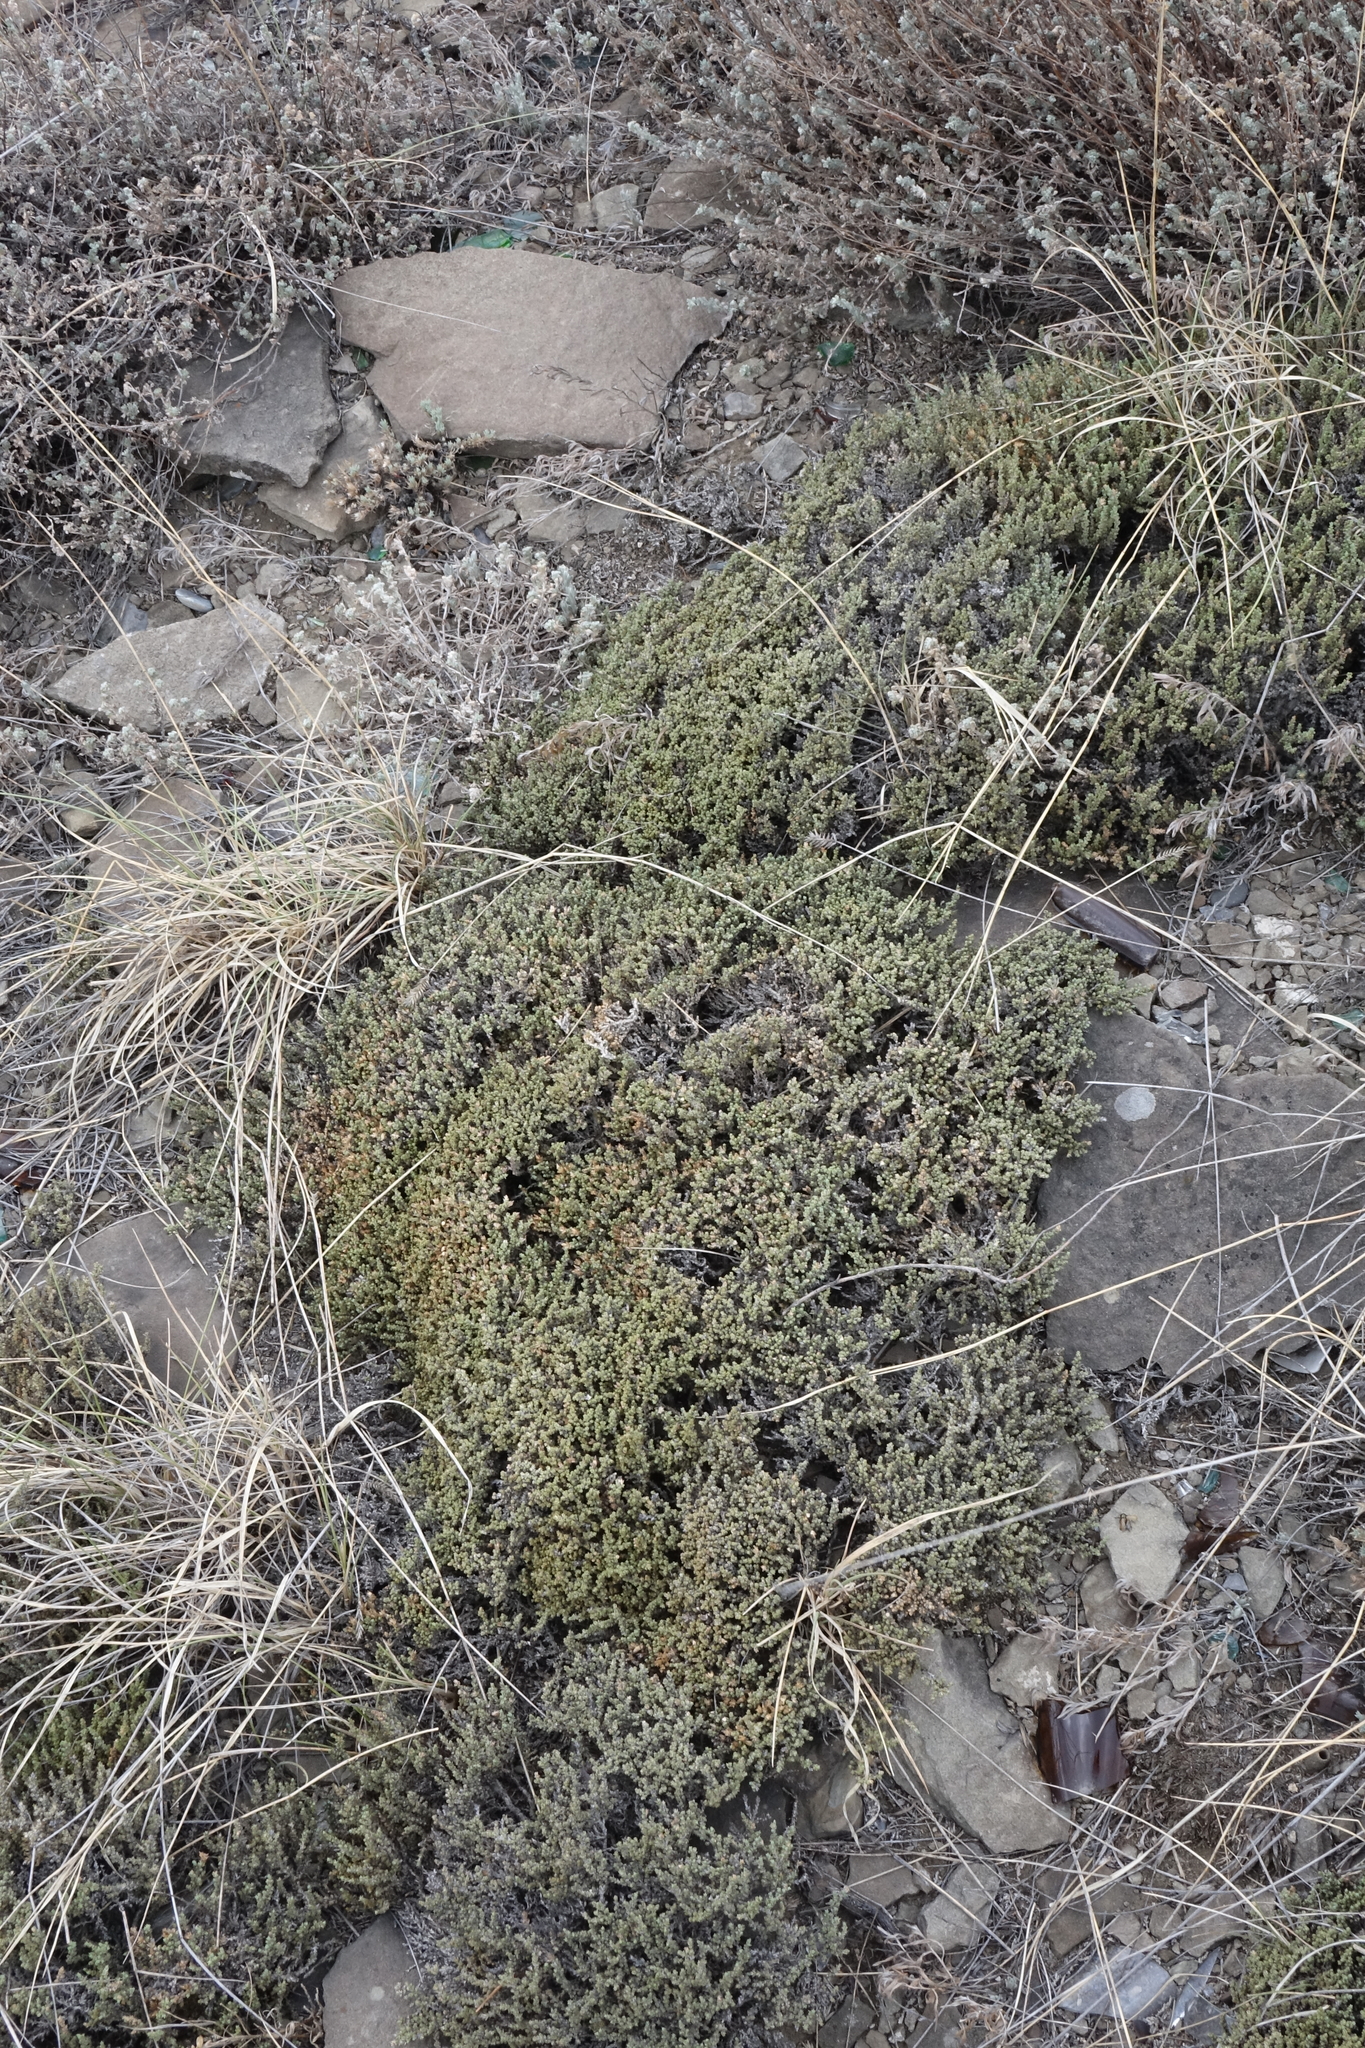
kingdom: Plantae
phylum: Tracheophyta
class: Magnoliopsida
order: Caryophyllales
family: Amaranthaceae
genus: Nanophyton
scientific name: Nanophyton grubovii
